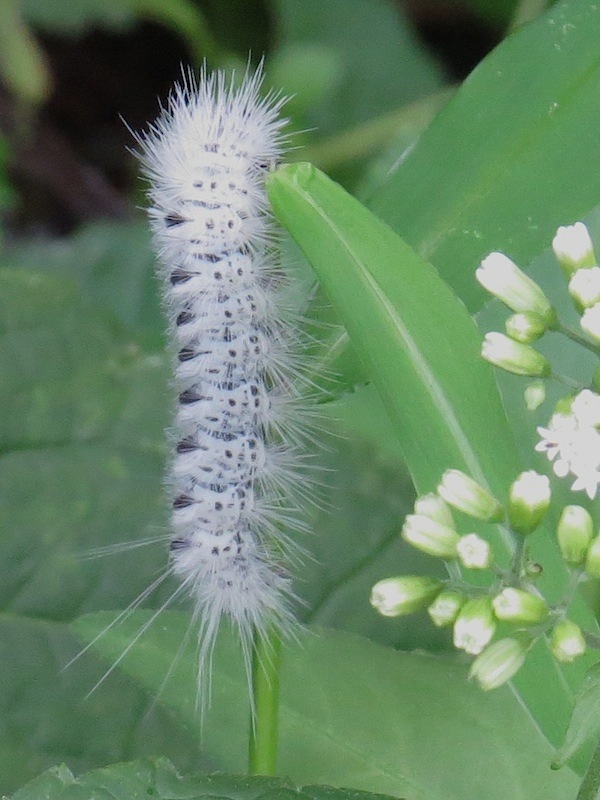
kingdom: Animalia
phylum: Arthropoda
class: Insecta
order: Lepidoptera
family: Erebidae
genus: Lophocampa
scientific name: Lophocampa caryae
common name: Hickory tussock moth
